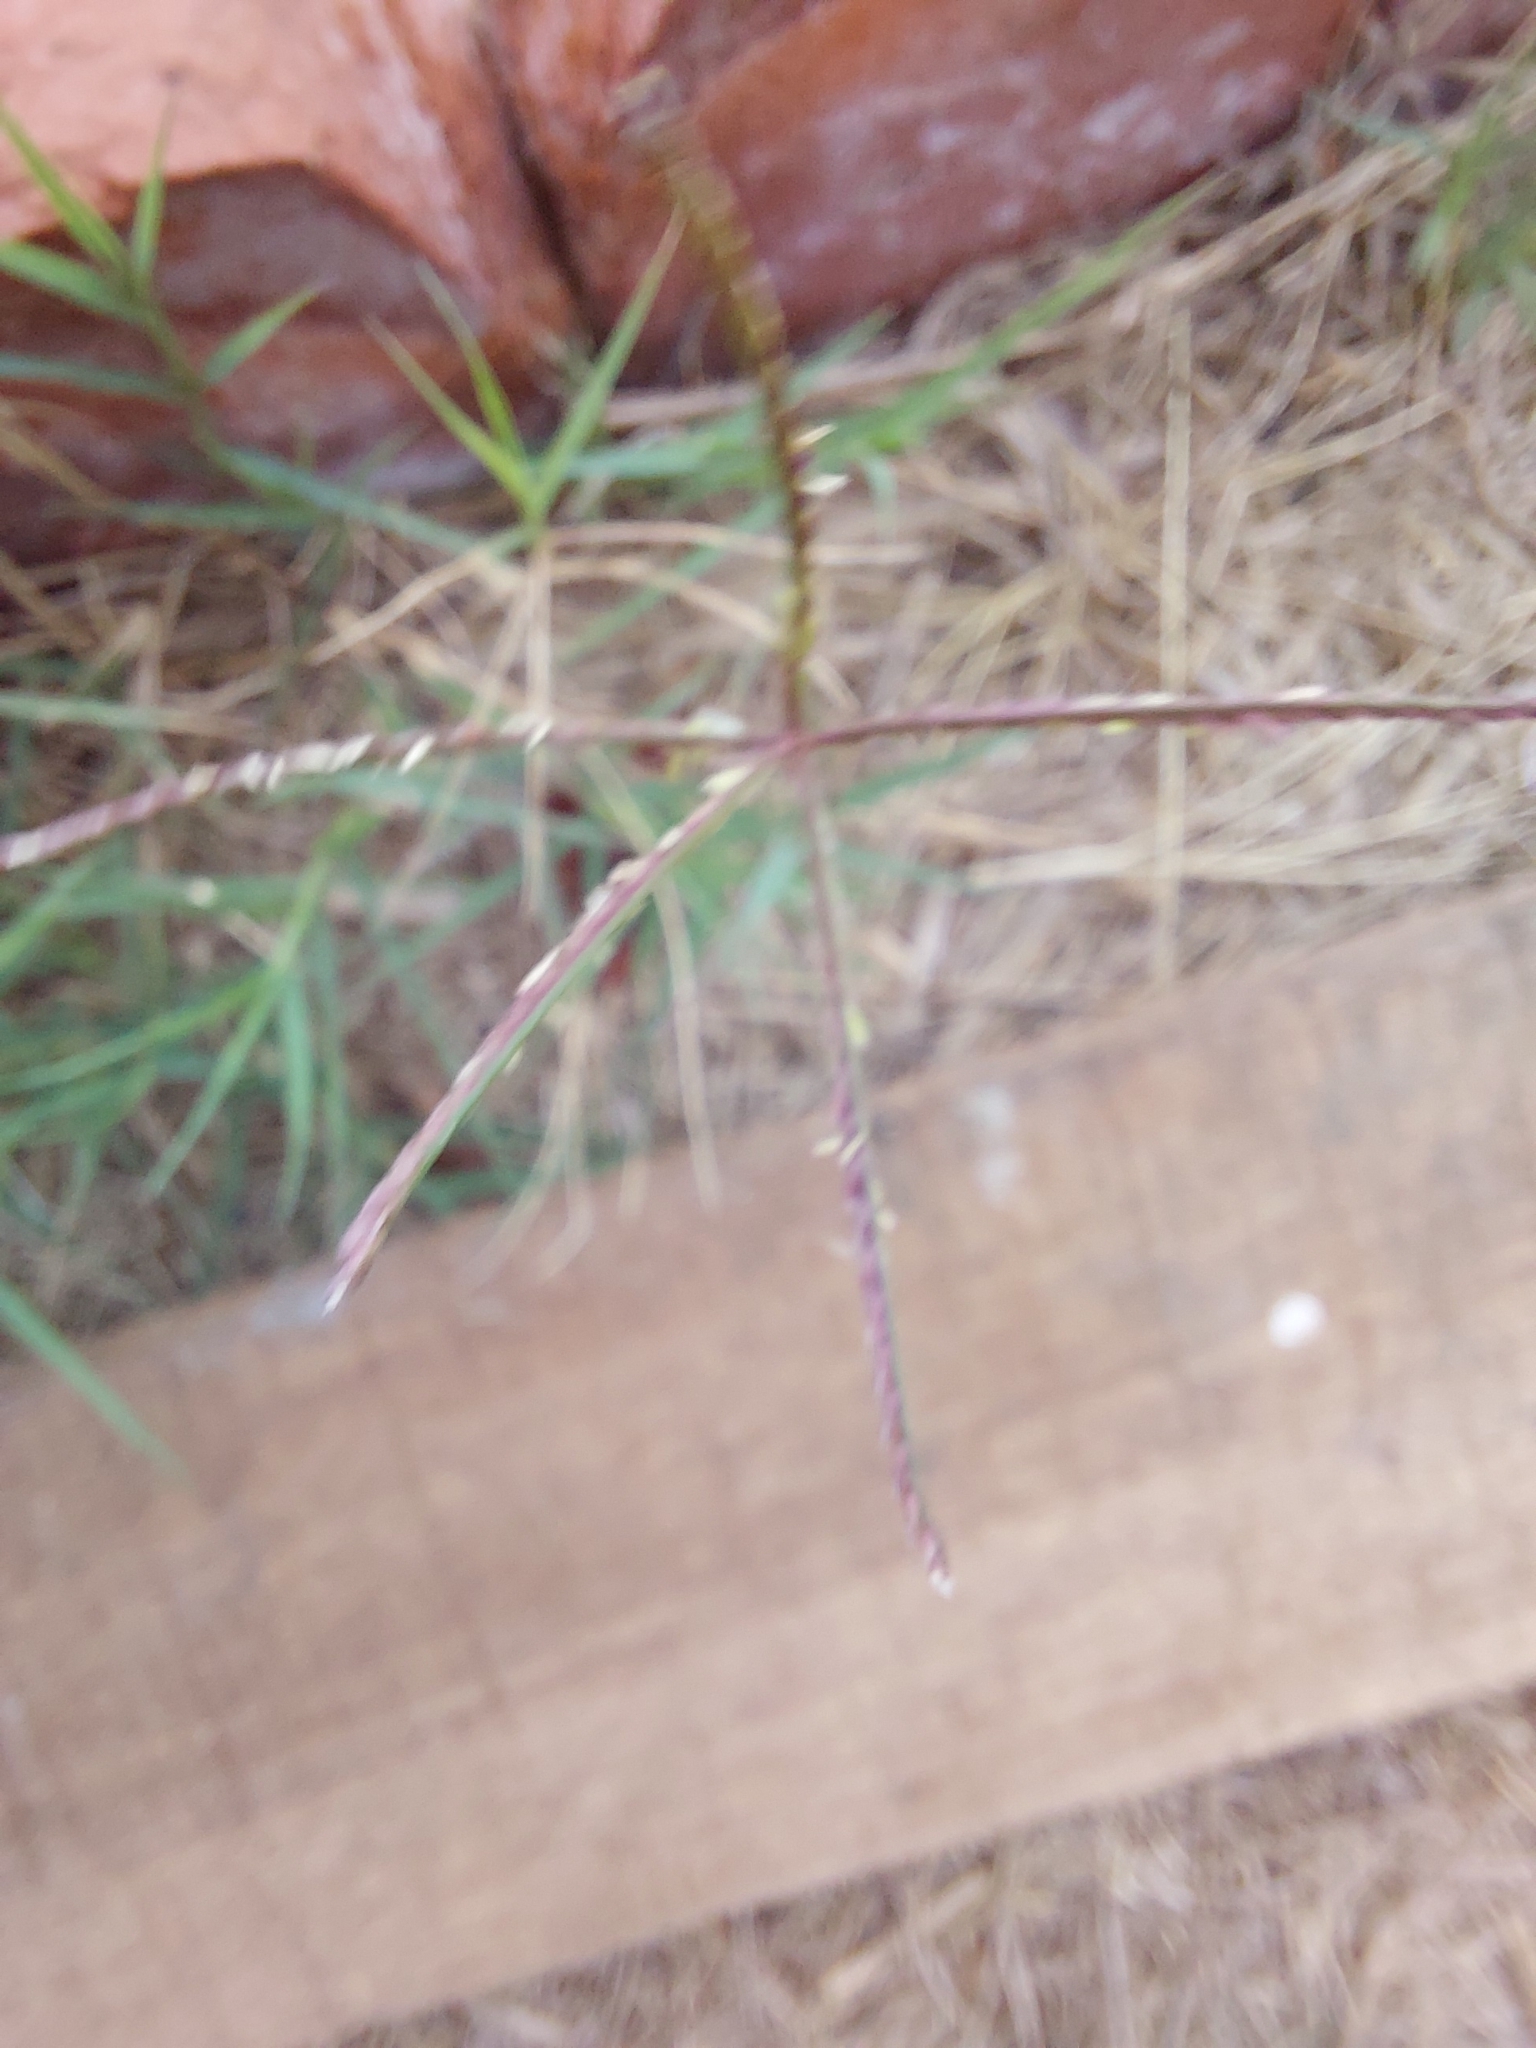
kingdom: Plantae
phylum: Tracheophyta
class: Liliopsida
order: Poales
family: Poaceae
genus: Cynodon
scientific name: Cynodon dactylon
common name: Bermuda grass
